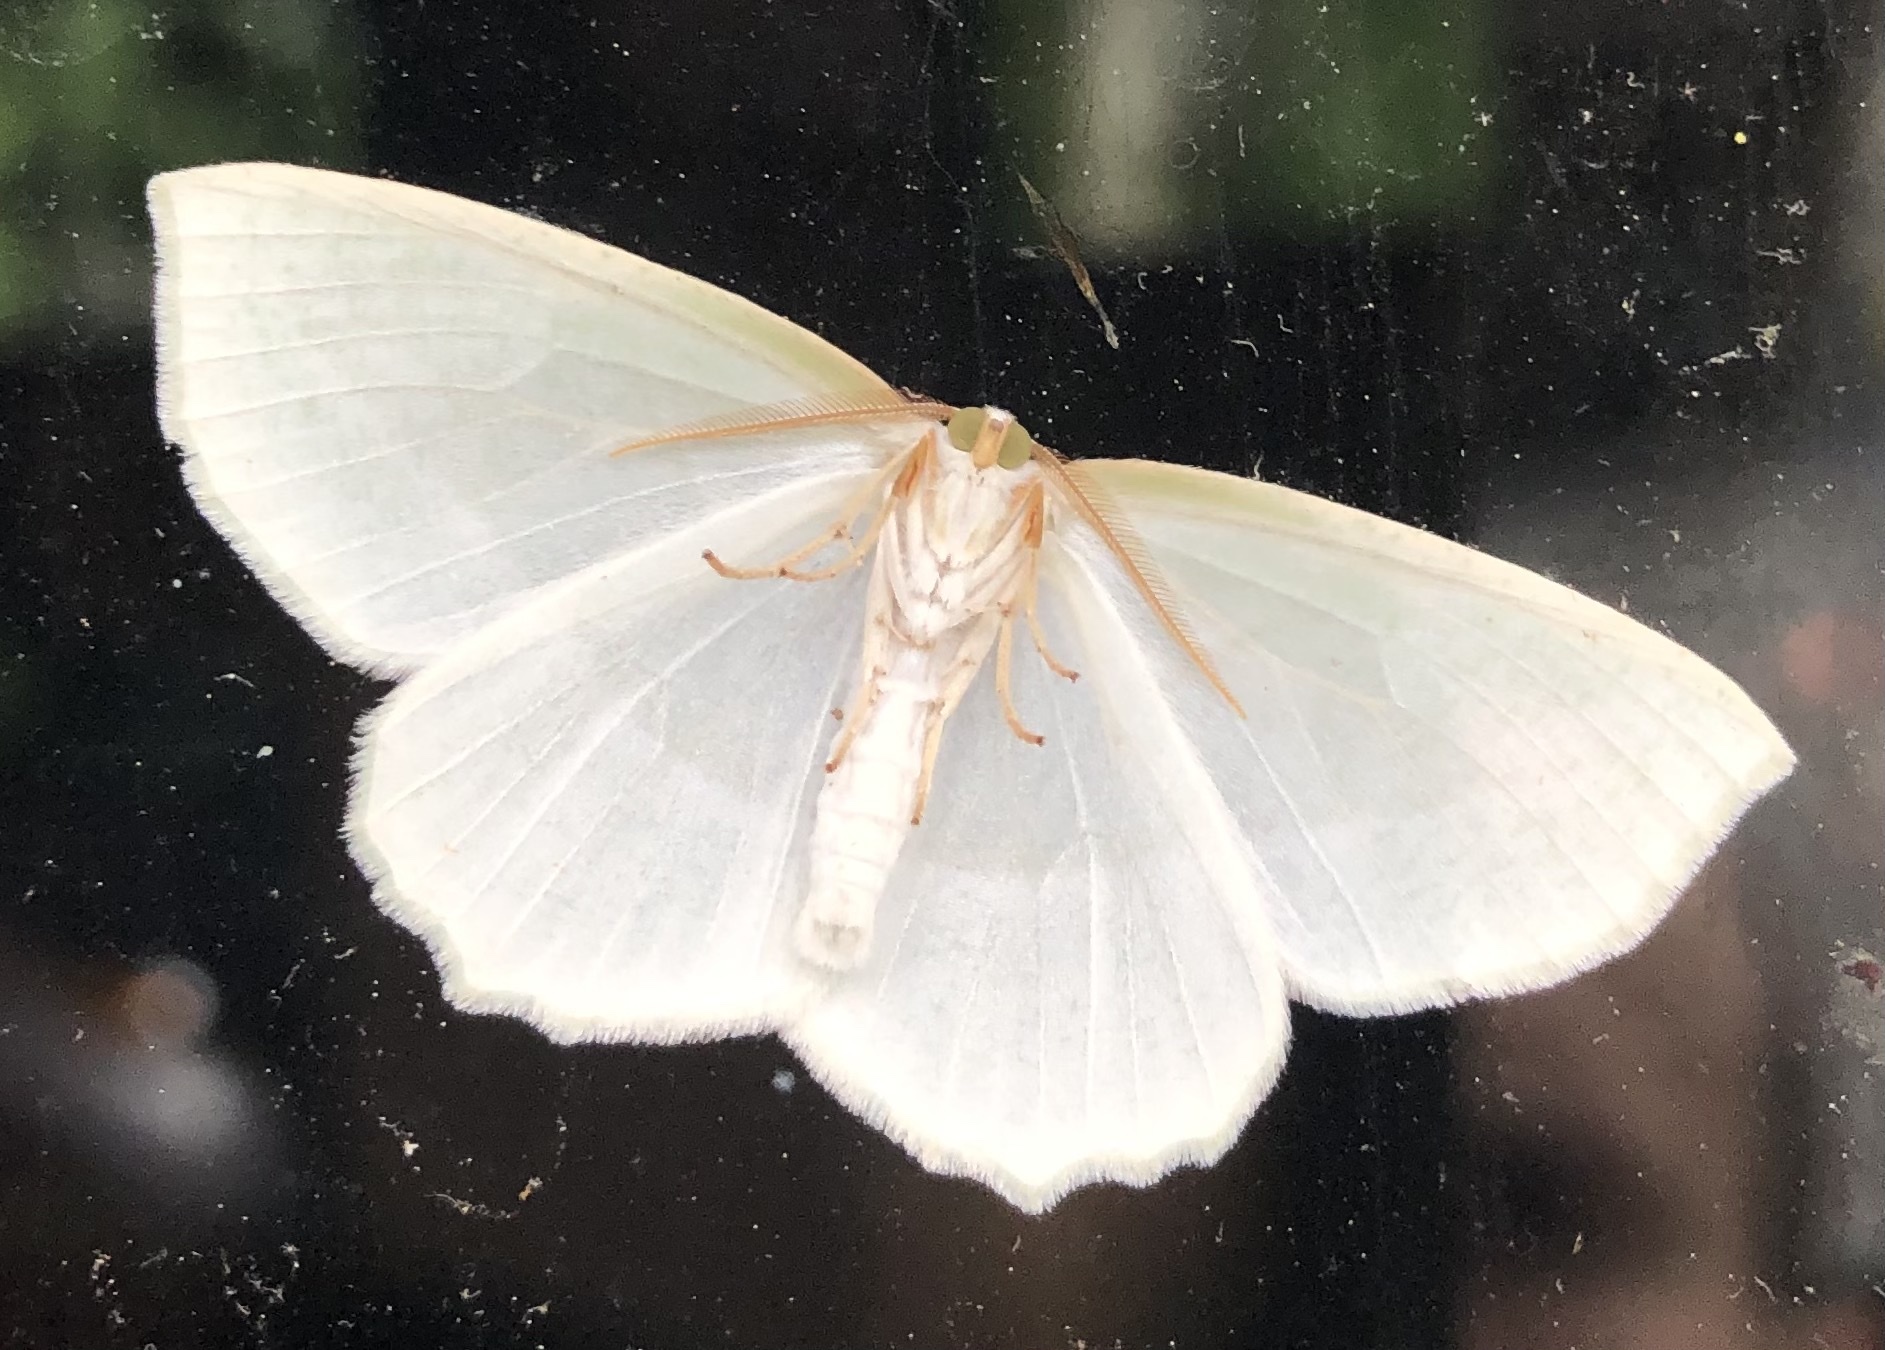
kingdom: Animalia
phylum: Arthropoda
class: Insecta
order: Lepidoptera
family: Geometridae
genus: Campaea
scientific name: Campaea perlata
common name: Fringed looper
